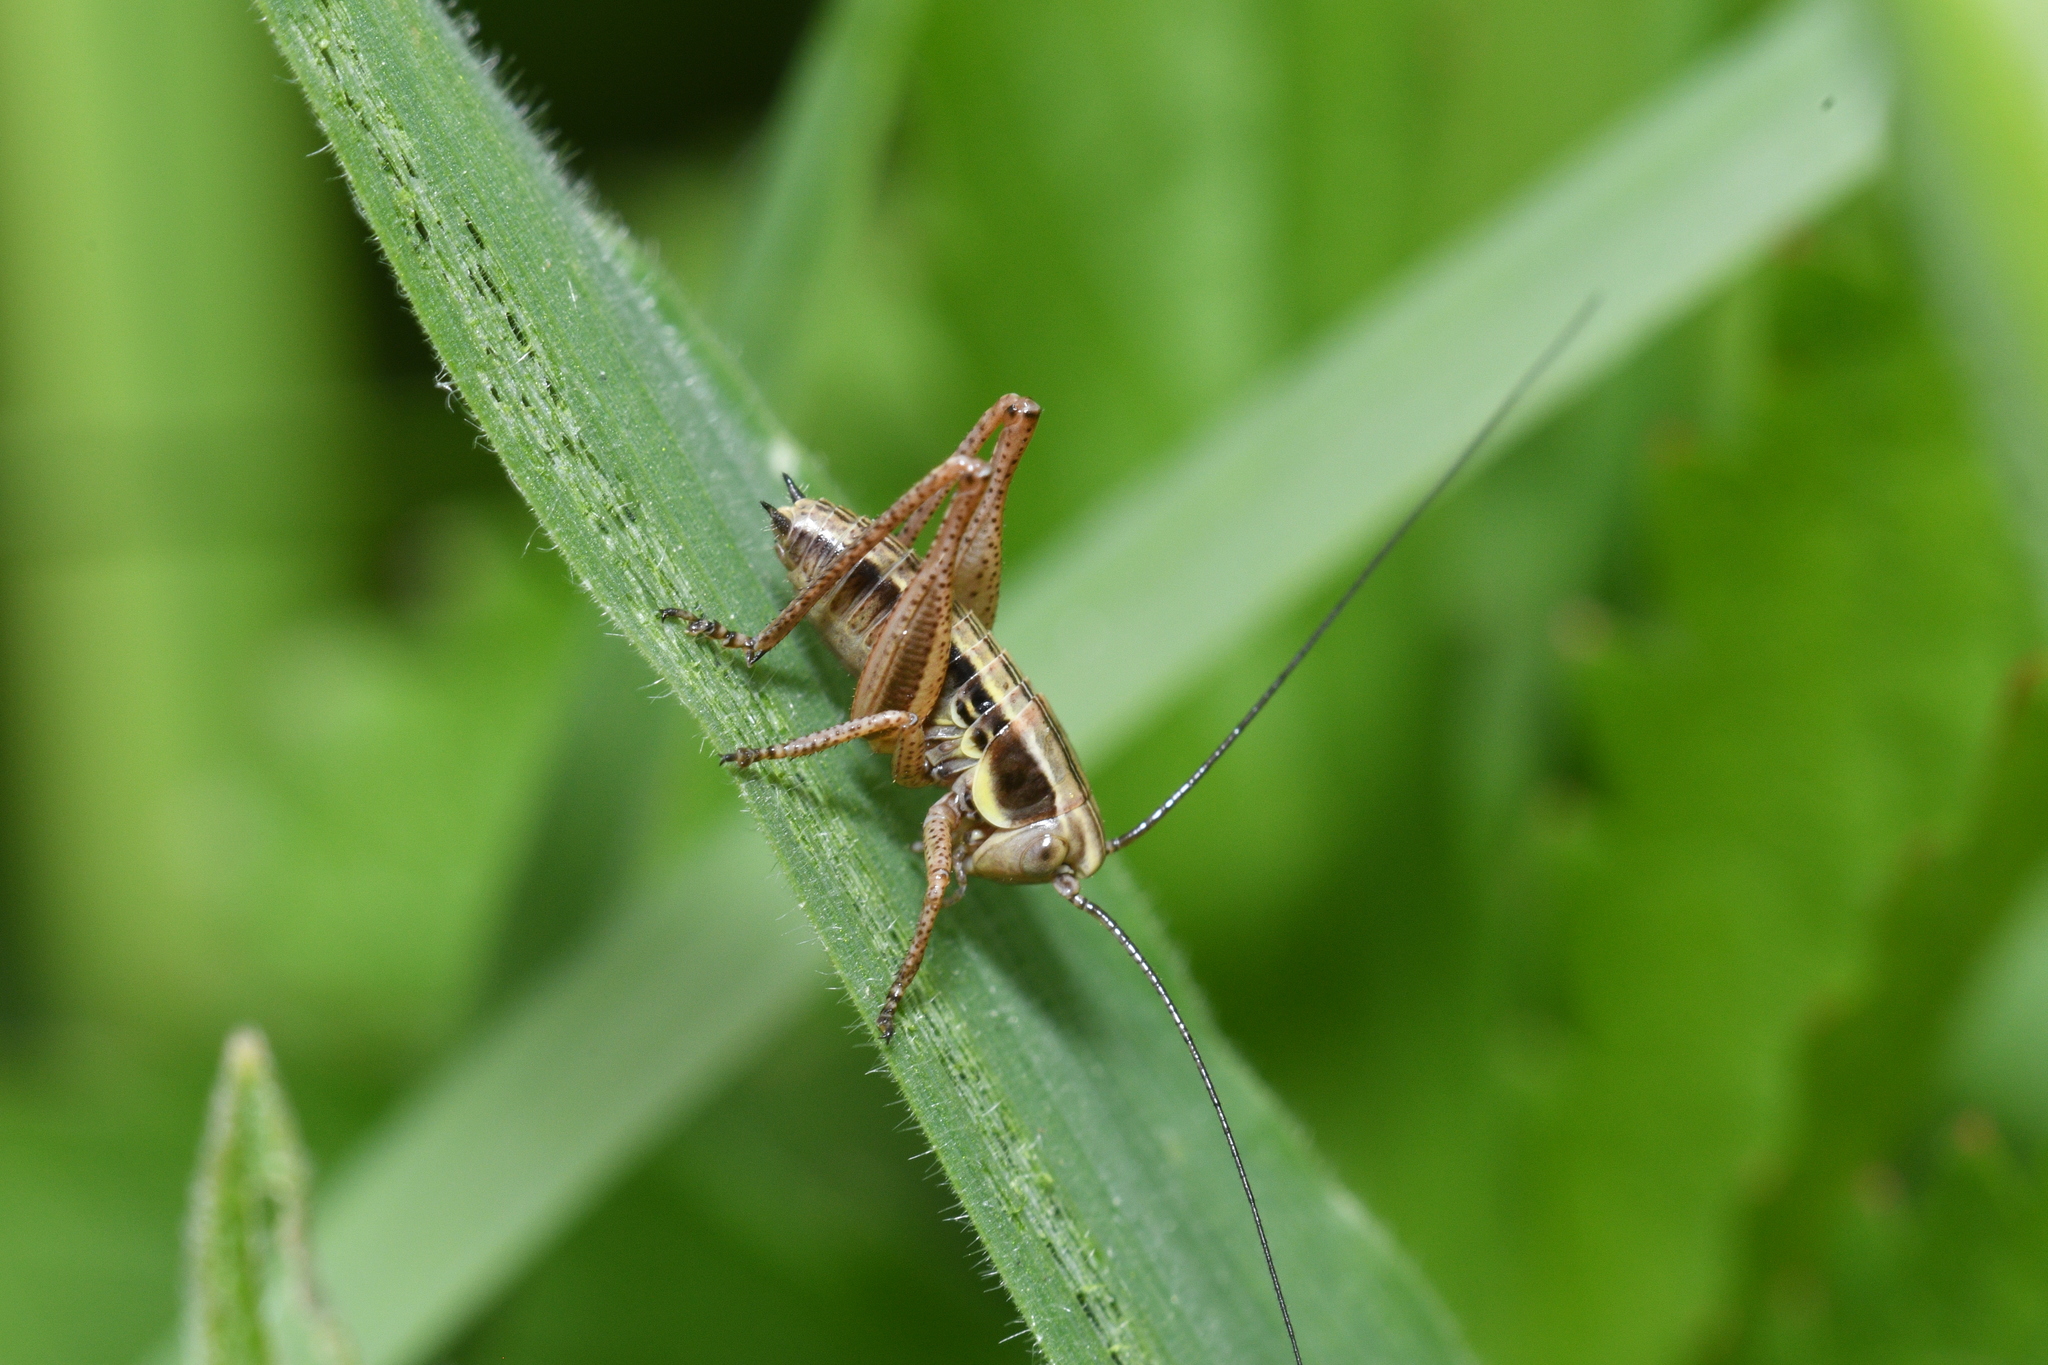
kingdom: Animalia
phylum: Arthropoda
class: Insecta
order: Orthoptera
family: Tettigoniidae
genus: Roeseliana
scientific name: Roeseliana roeselii
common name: Roesel's bush cricket
